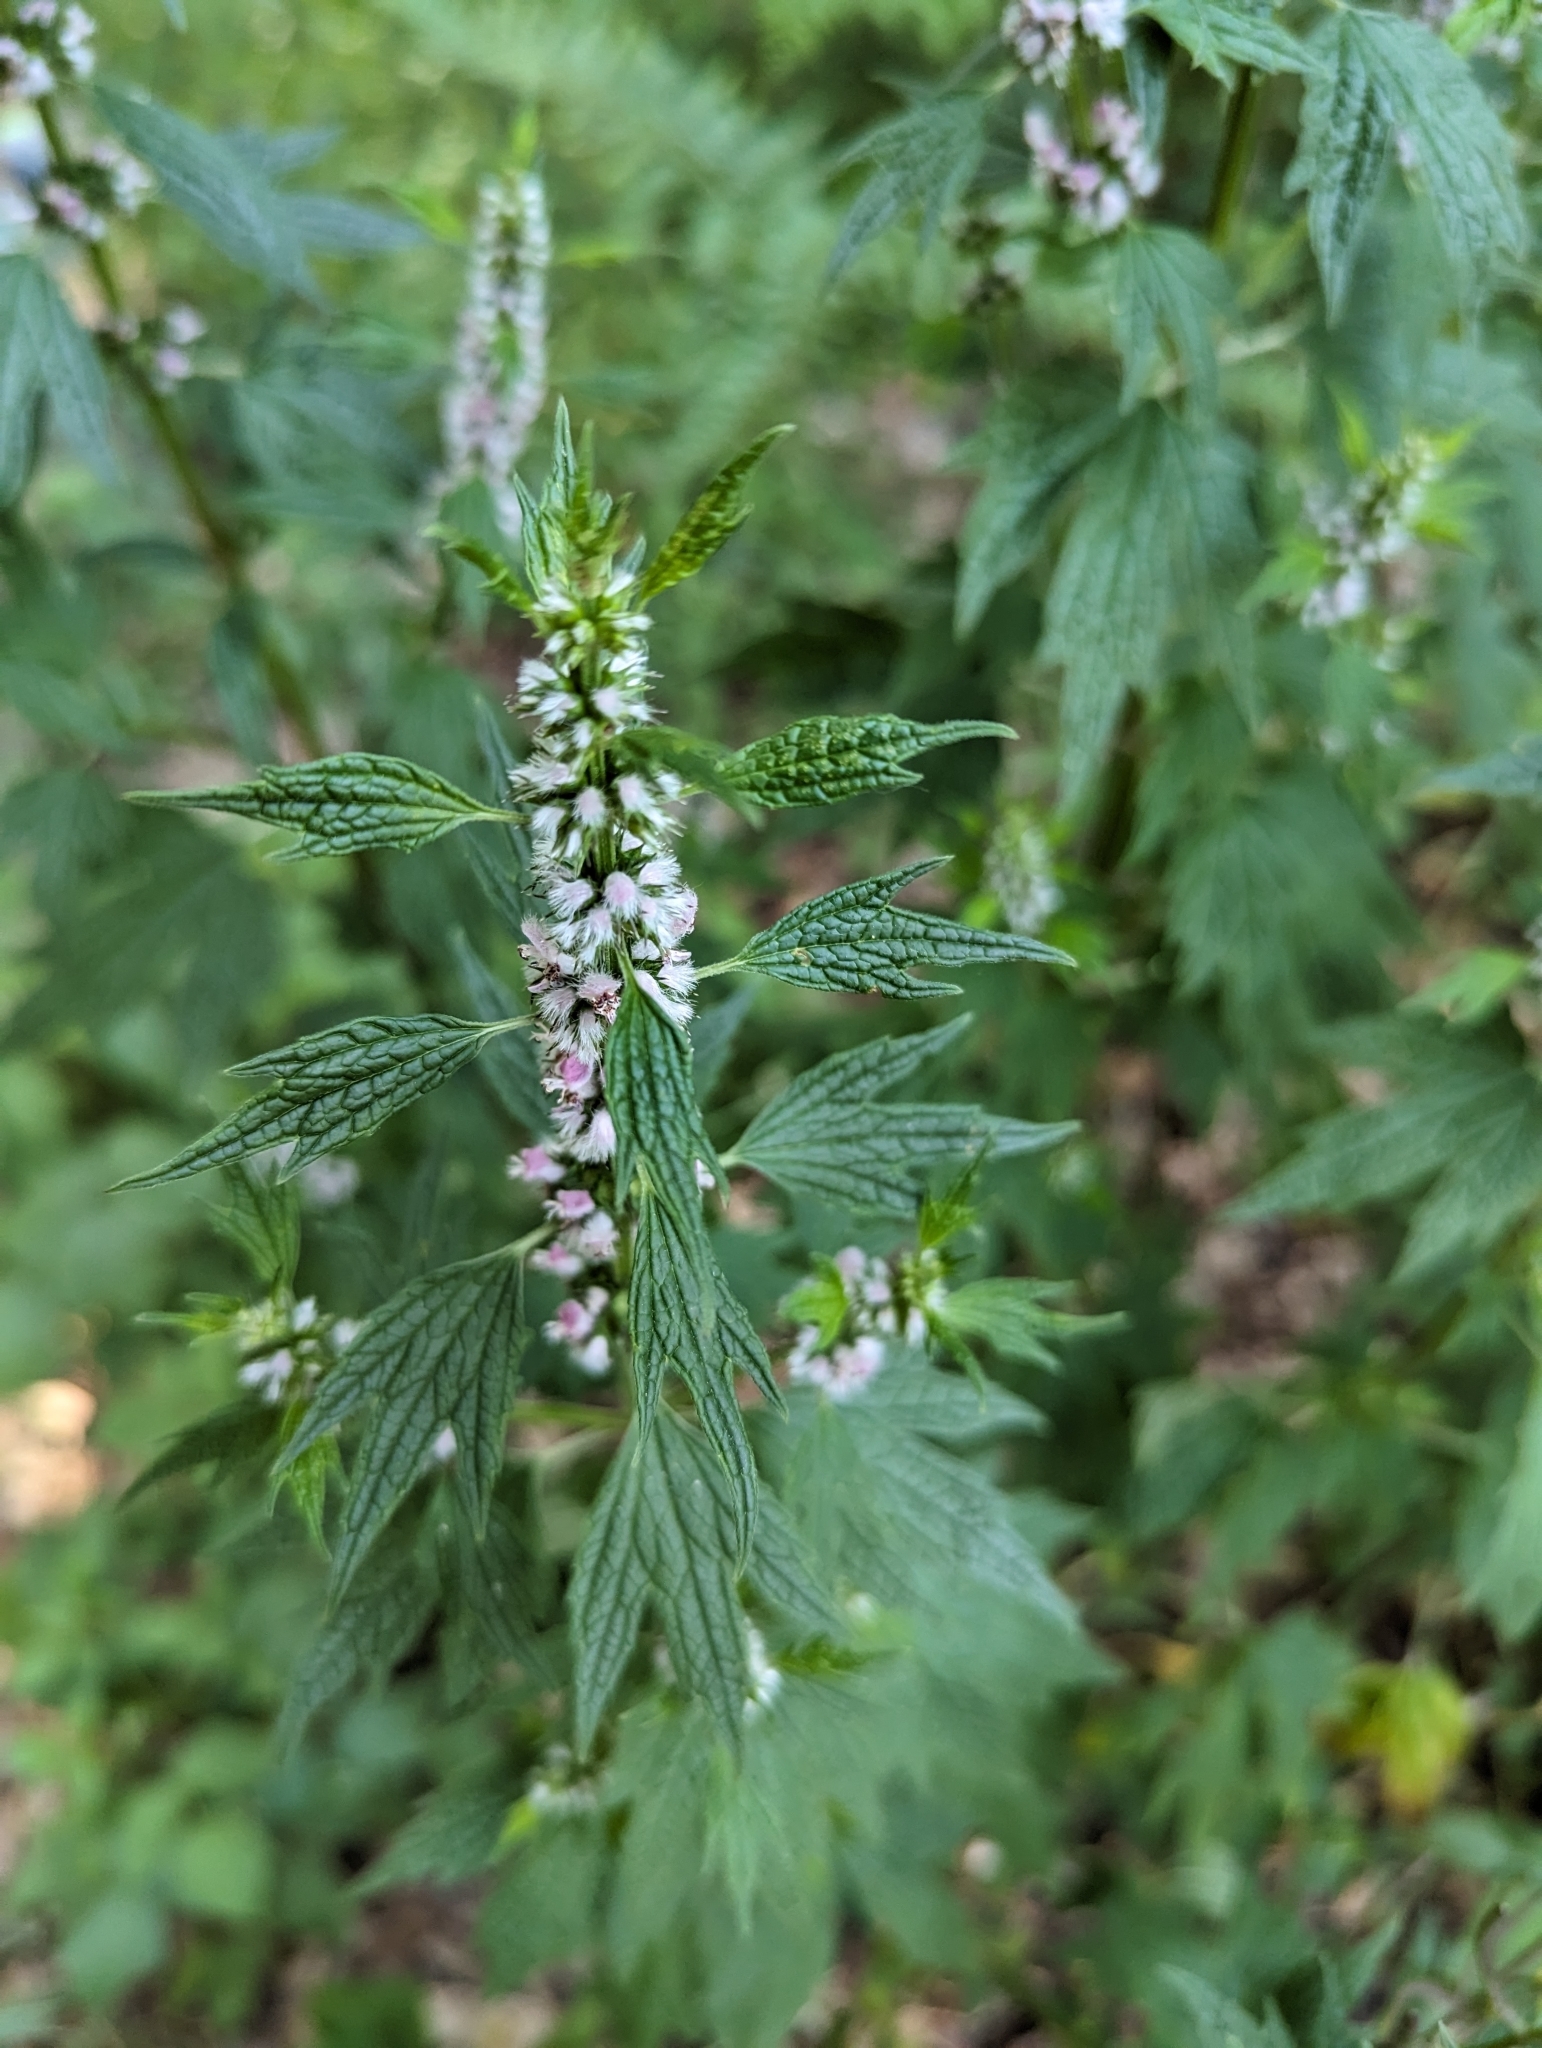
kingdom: Plantae
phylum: Tracheophyta
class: Magnoliopsida
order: Lamiales
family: Lamiaceae
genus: Leonurus
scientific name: Leonurus cardiaca
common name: Motherwort
